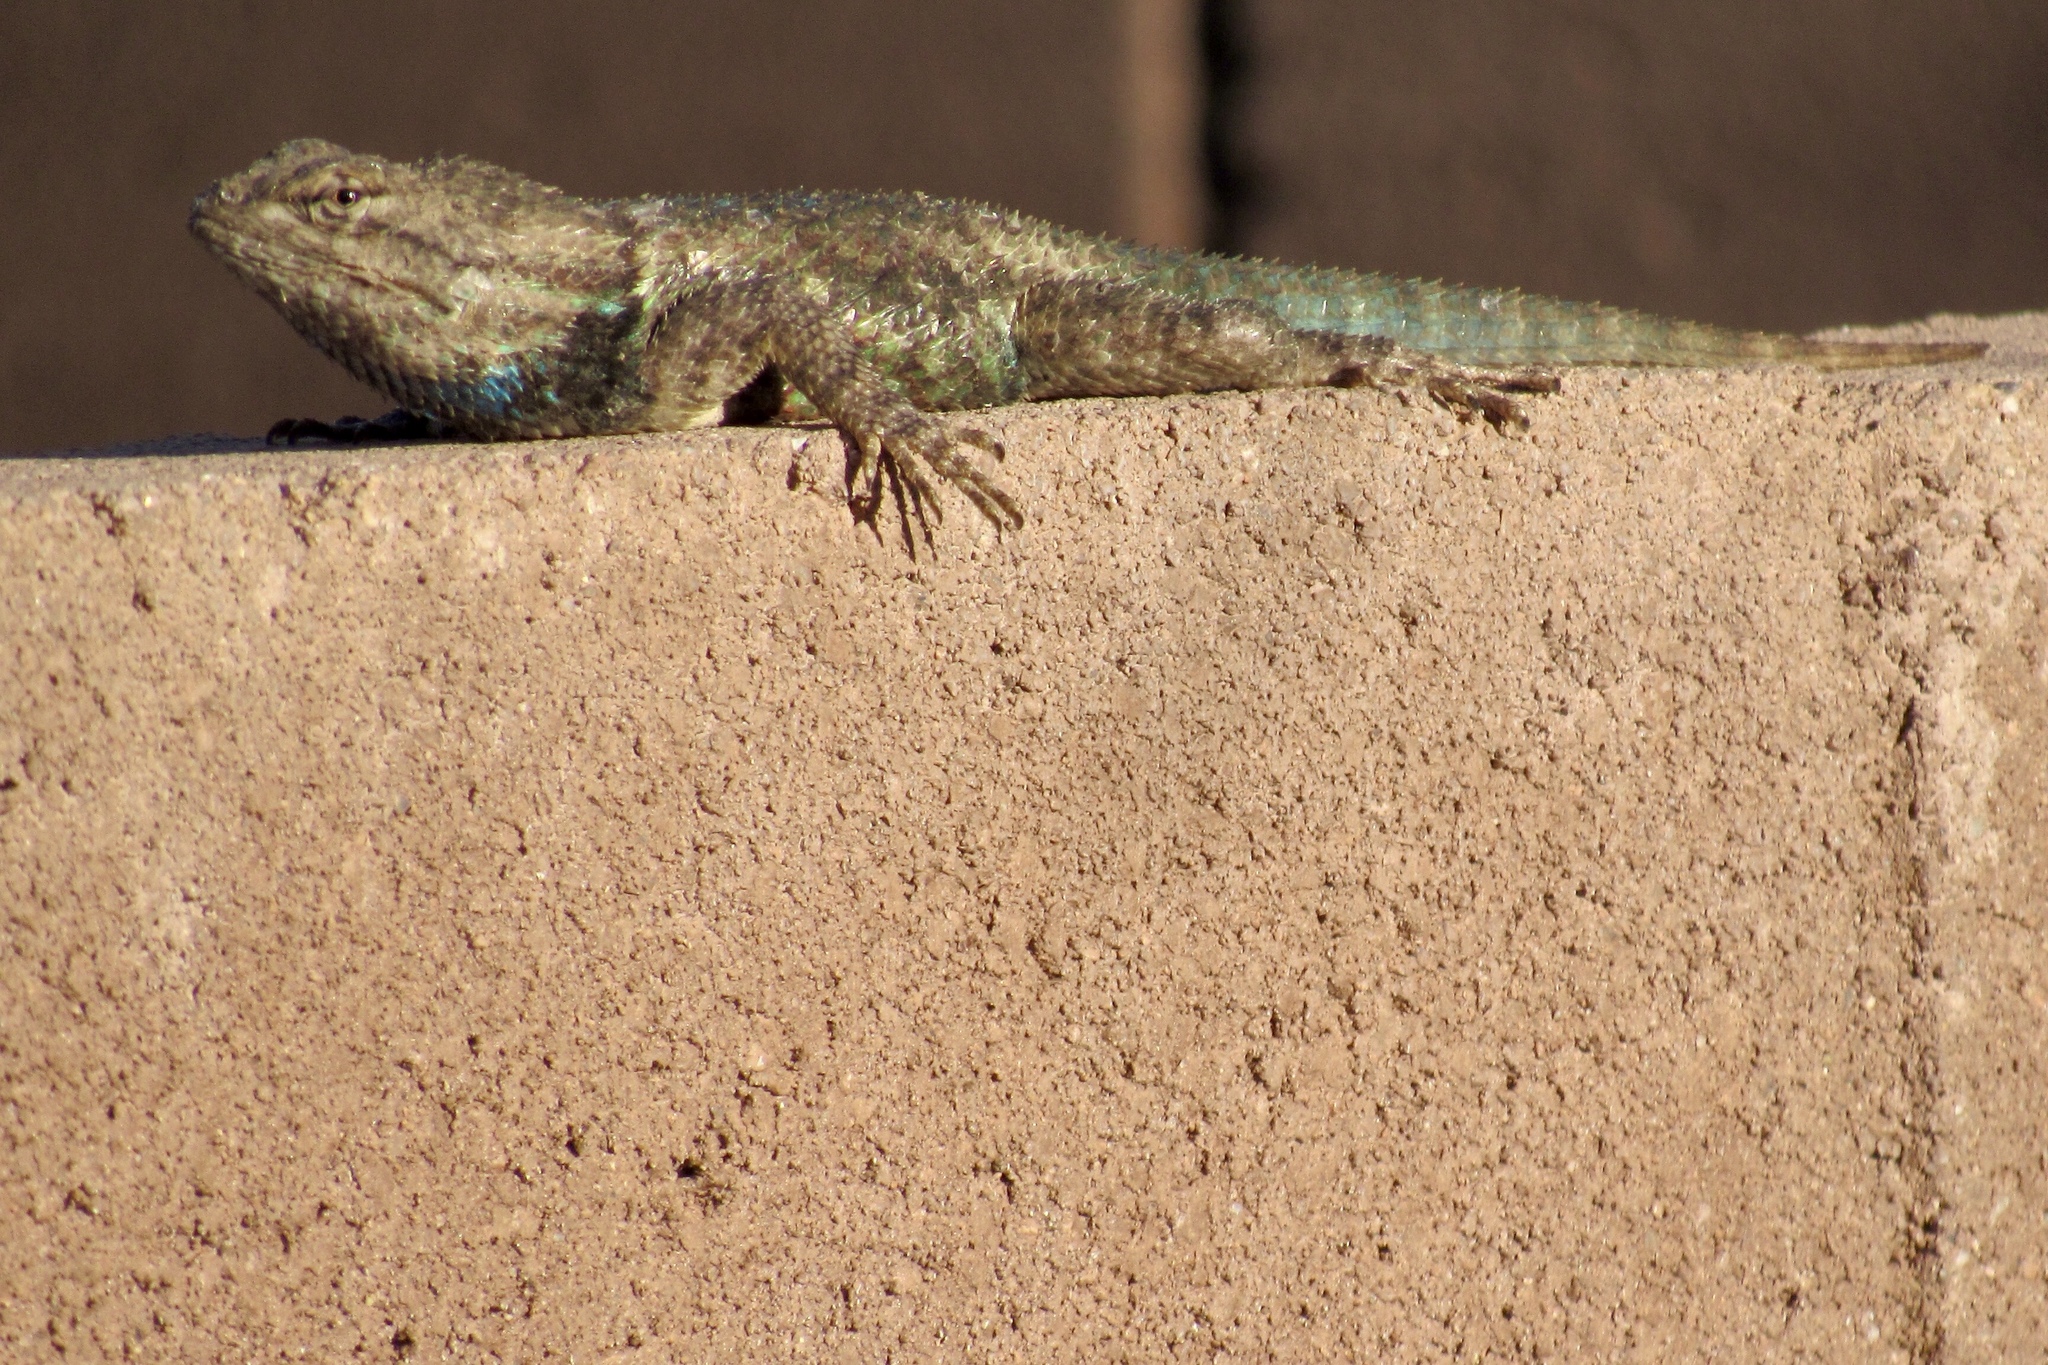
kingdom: Animalia
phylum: Chordata
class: Squamata
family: Phrynosomatidae
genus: Sceloporus
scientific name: Sceloporus magister
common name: Desert spiny lizard
